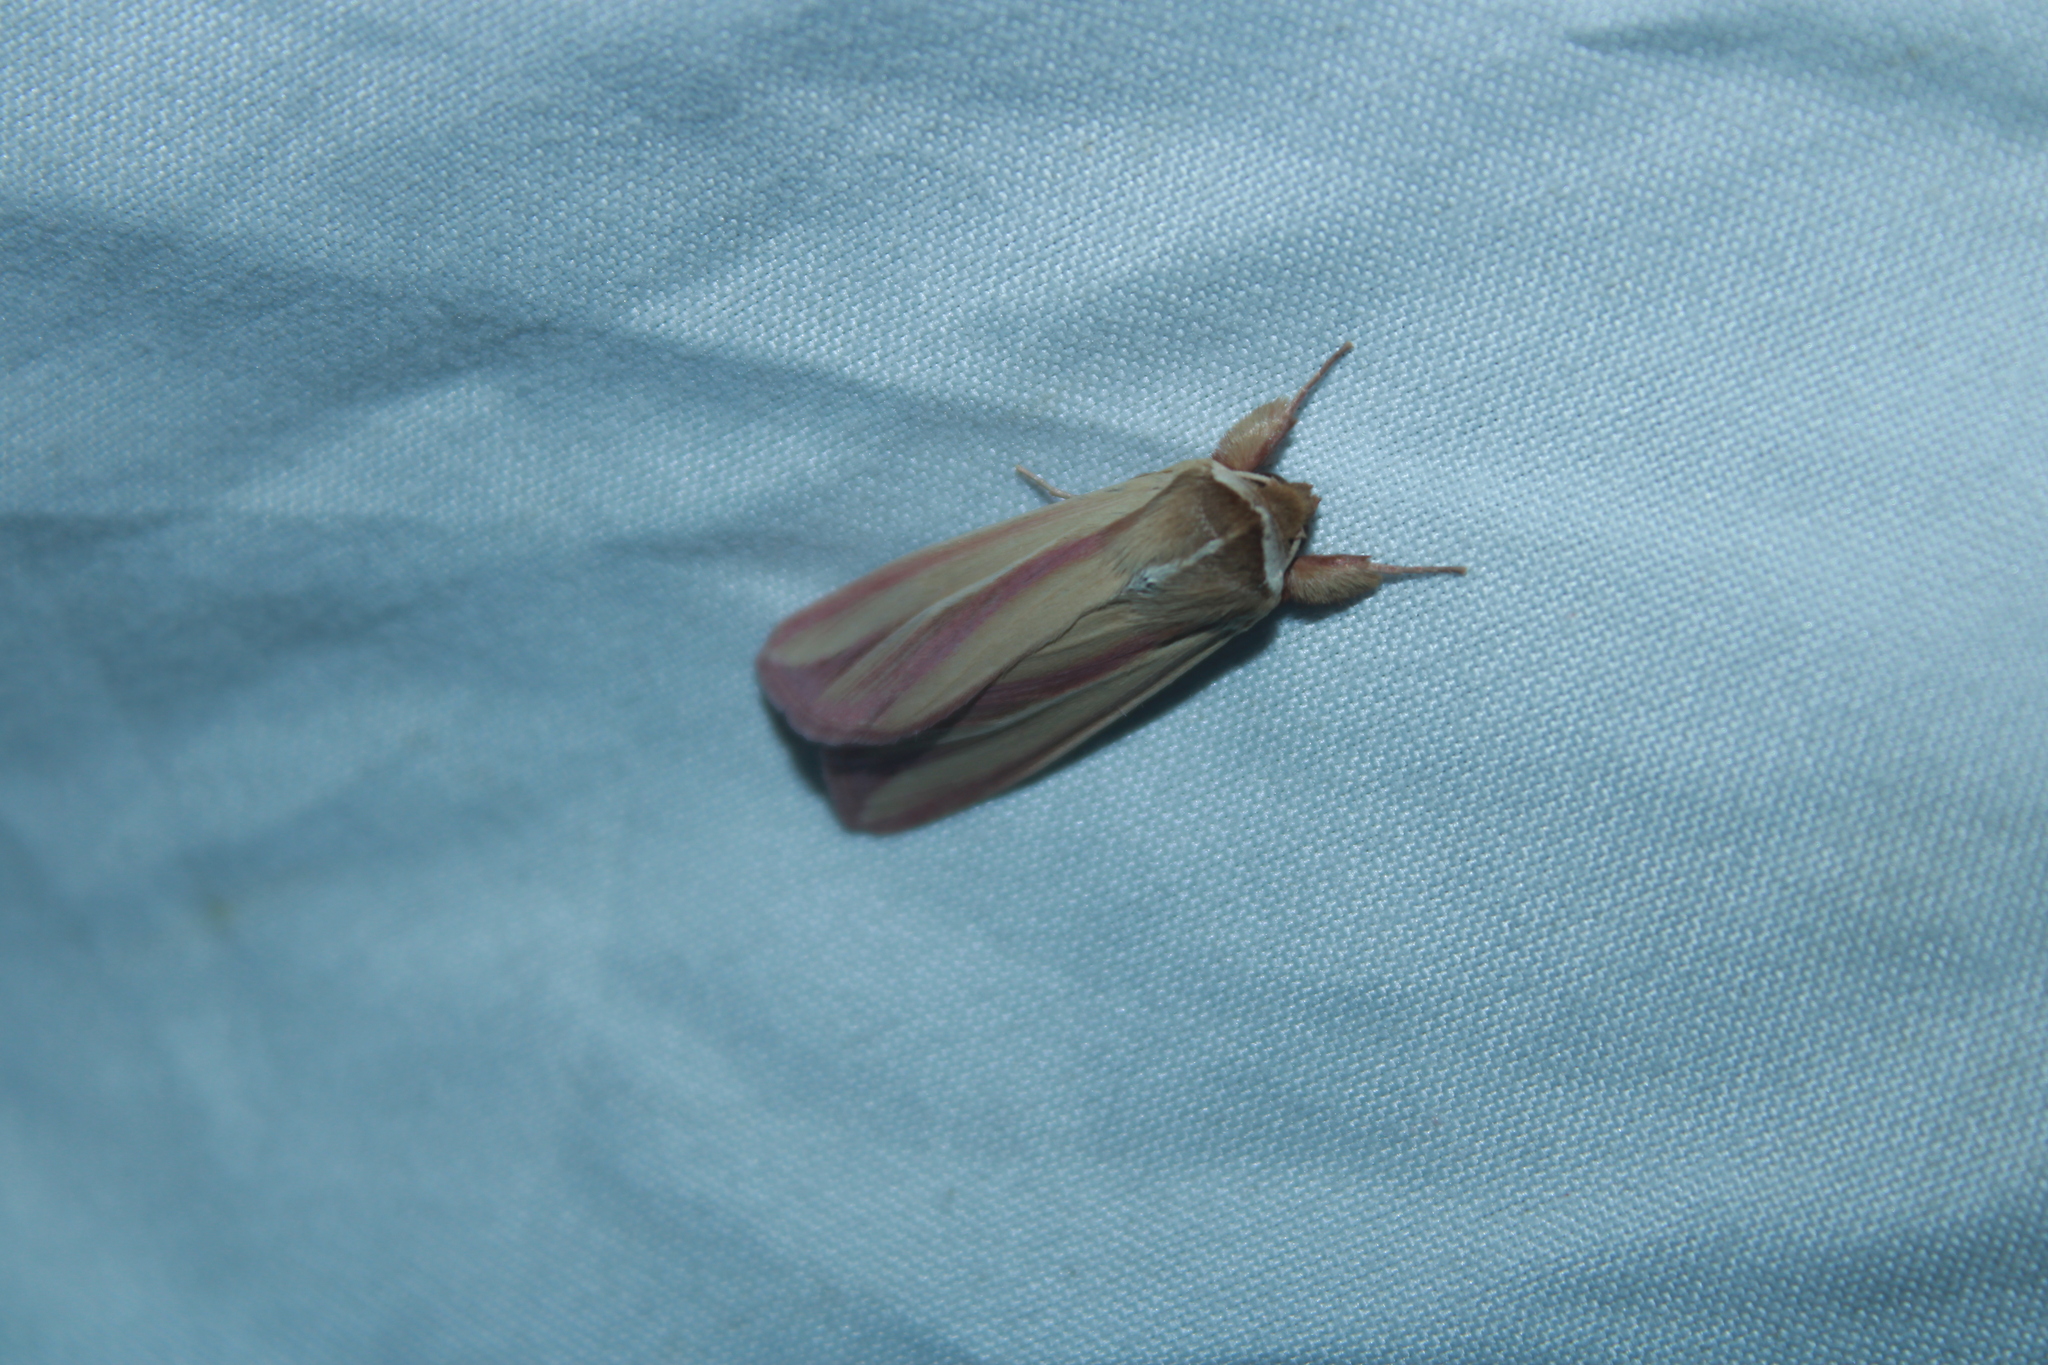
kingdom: Animalia
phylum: Arthropoda
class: Insecta
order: Lepidoptera
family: Noctuidae
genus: Dargida
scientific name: Dargida rubripennis
